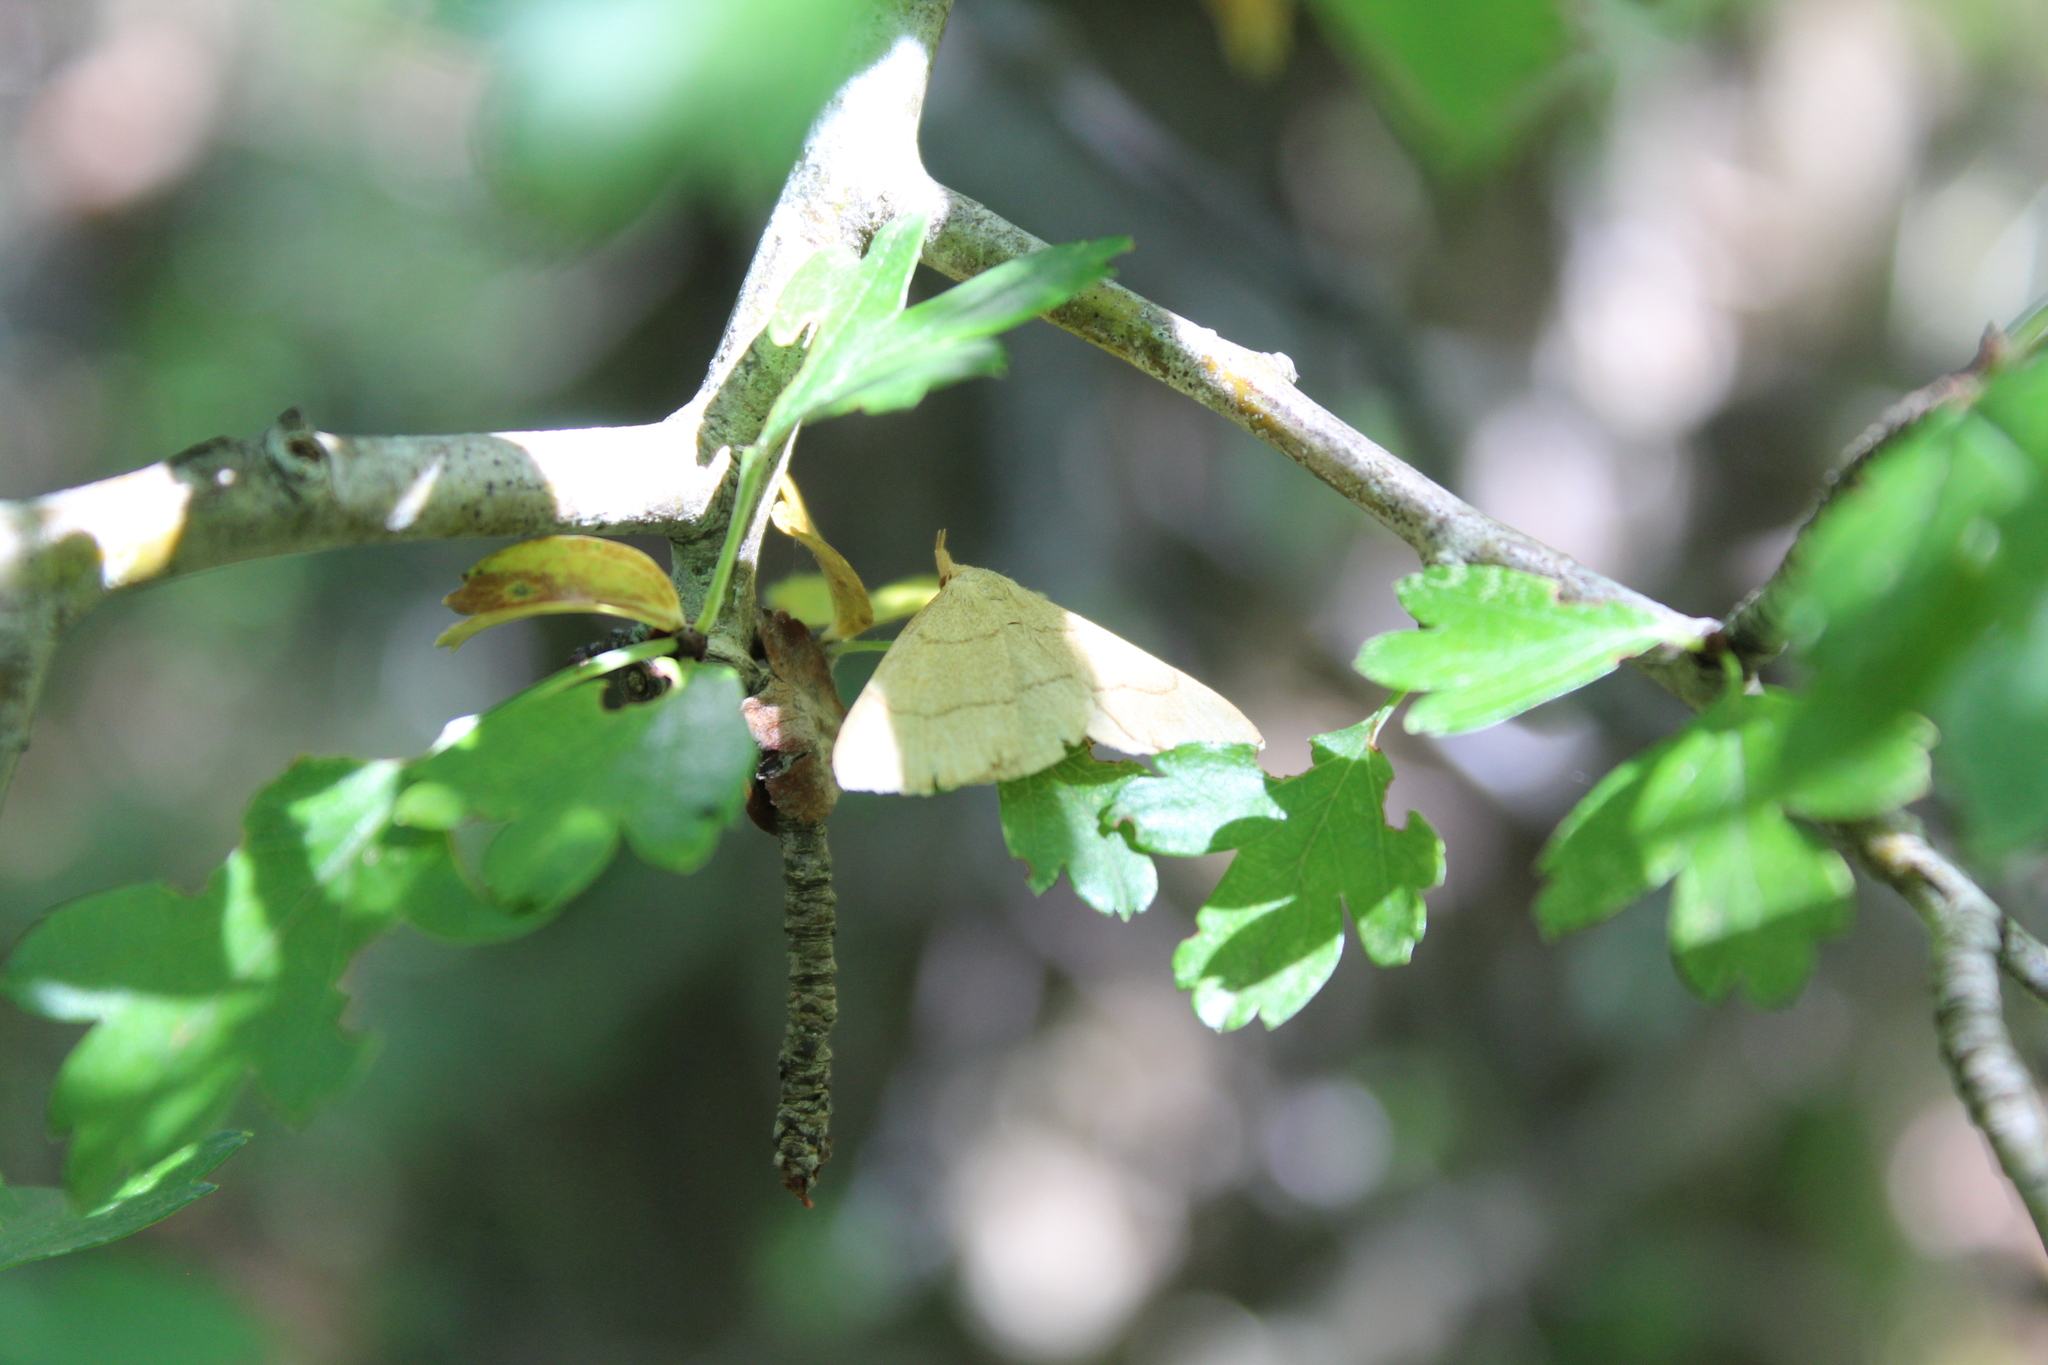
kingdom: Animalia
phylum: Arthropoda
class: Insecta
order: Lepidoptera
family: Erebidae
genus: Paracolax
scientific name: Paracolax tristalis
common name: Clay fan-foot
